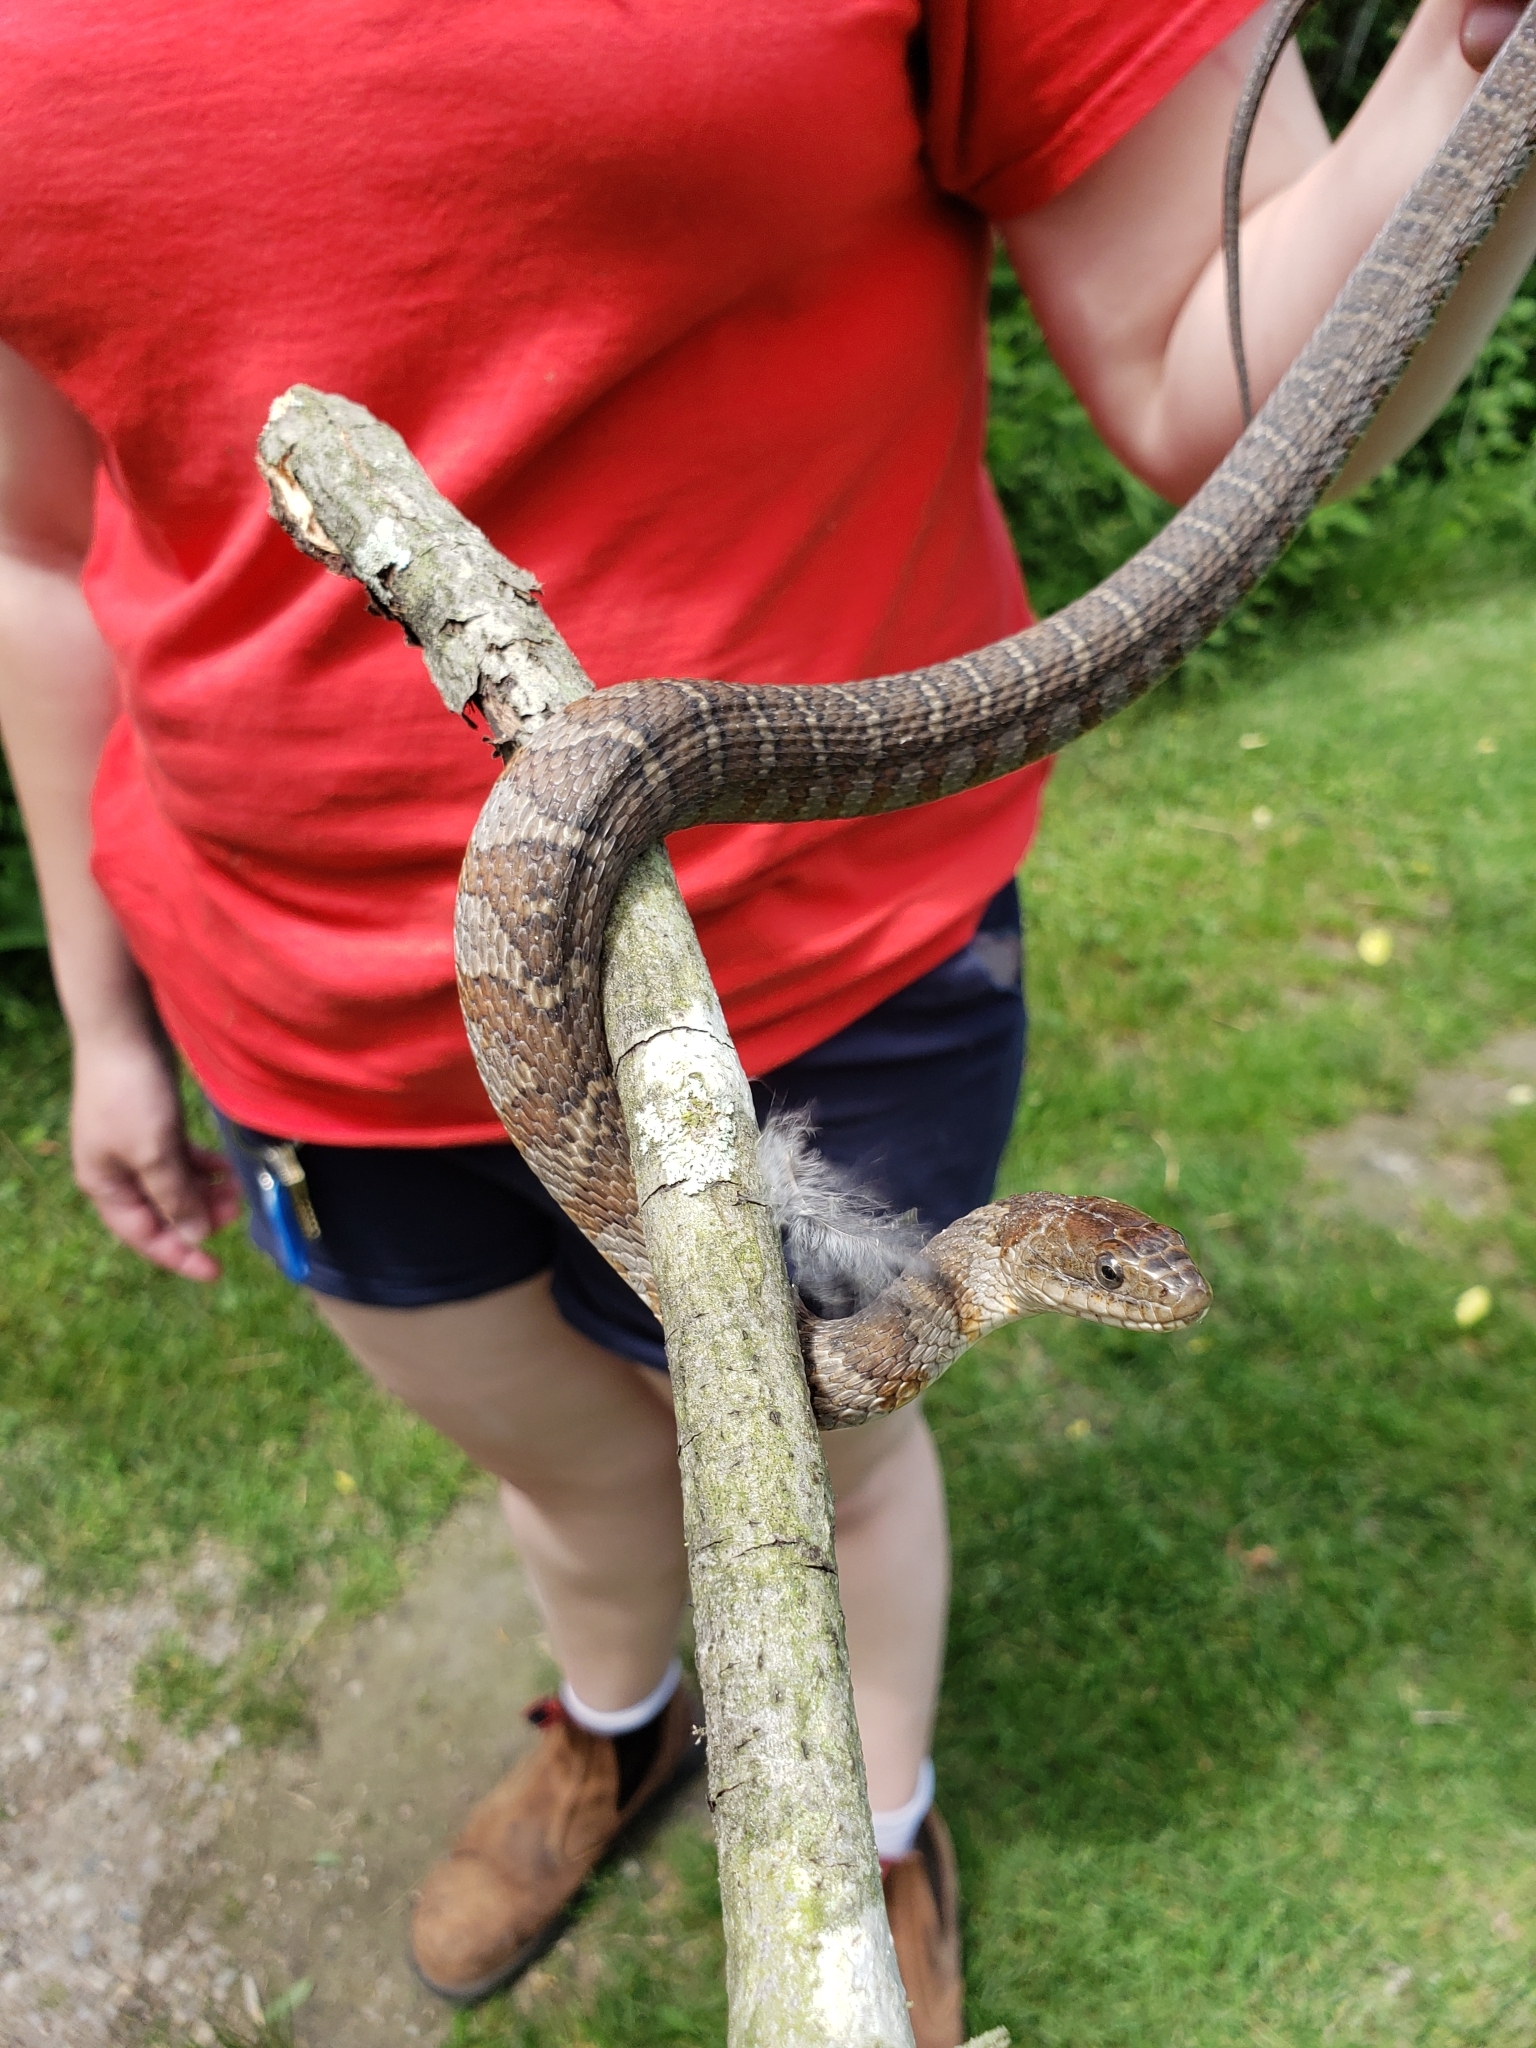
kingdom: Animalia
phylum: Chordata
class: Squamata
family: Colubridae
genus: Nerodia
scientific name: Nerodia sipedon
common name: Northern water snake
